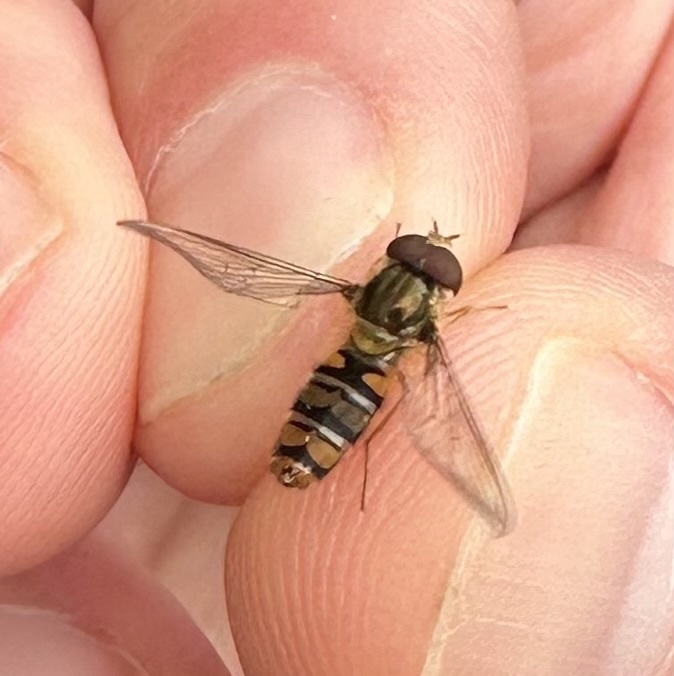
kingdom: Animalia
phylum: Arthropoda
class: Insecta
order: Diptera
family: Syrphidae
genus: Episyrphus
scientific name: Episyrphus balteatus
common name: Marmalade hoverfly
